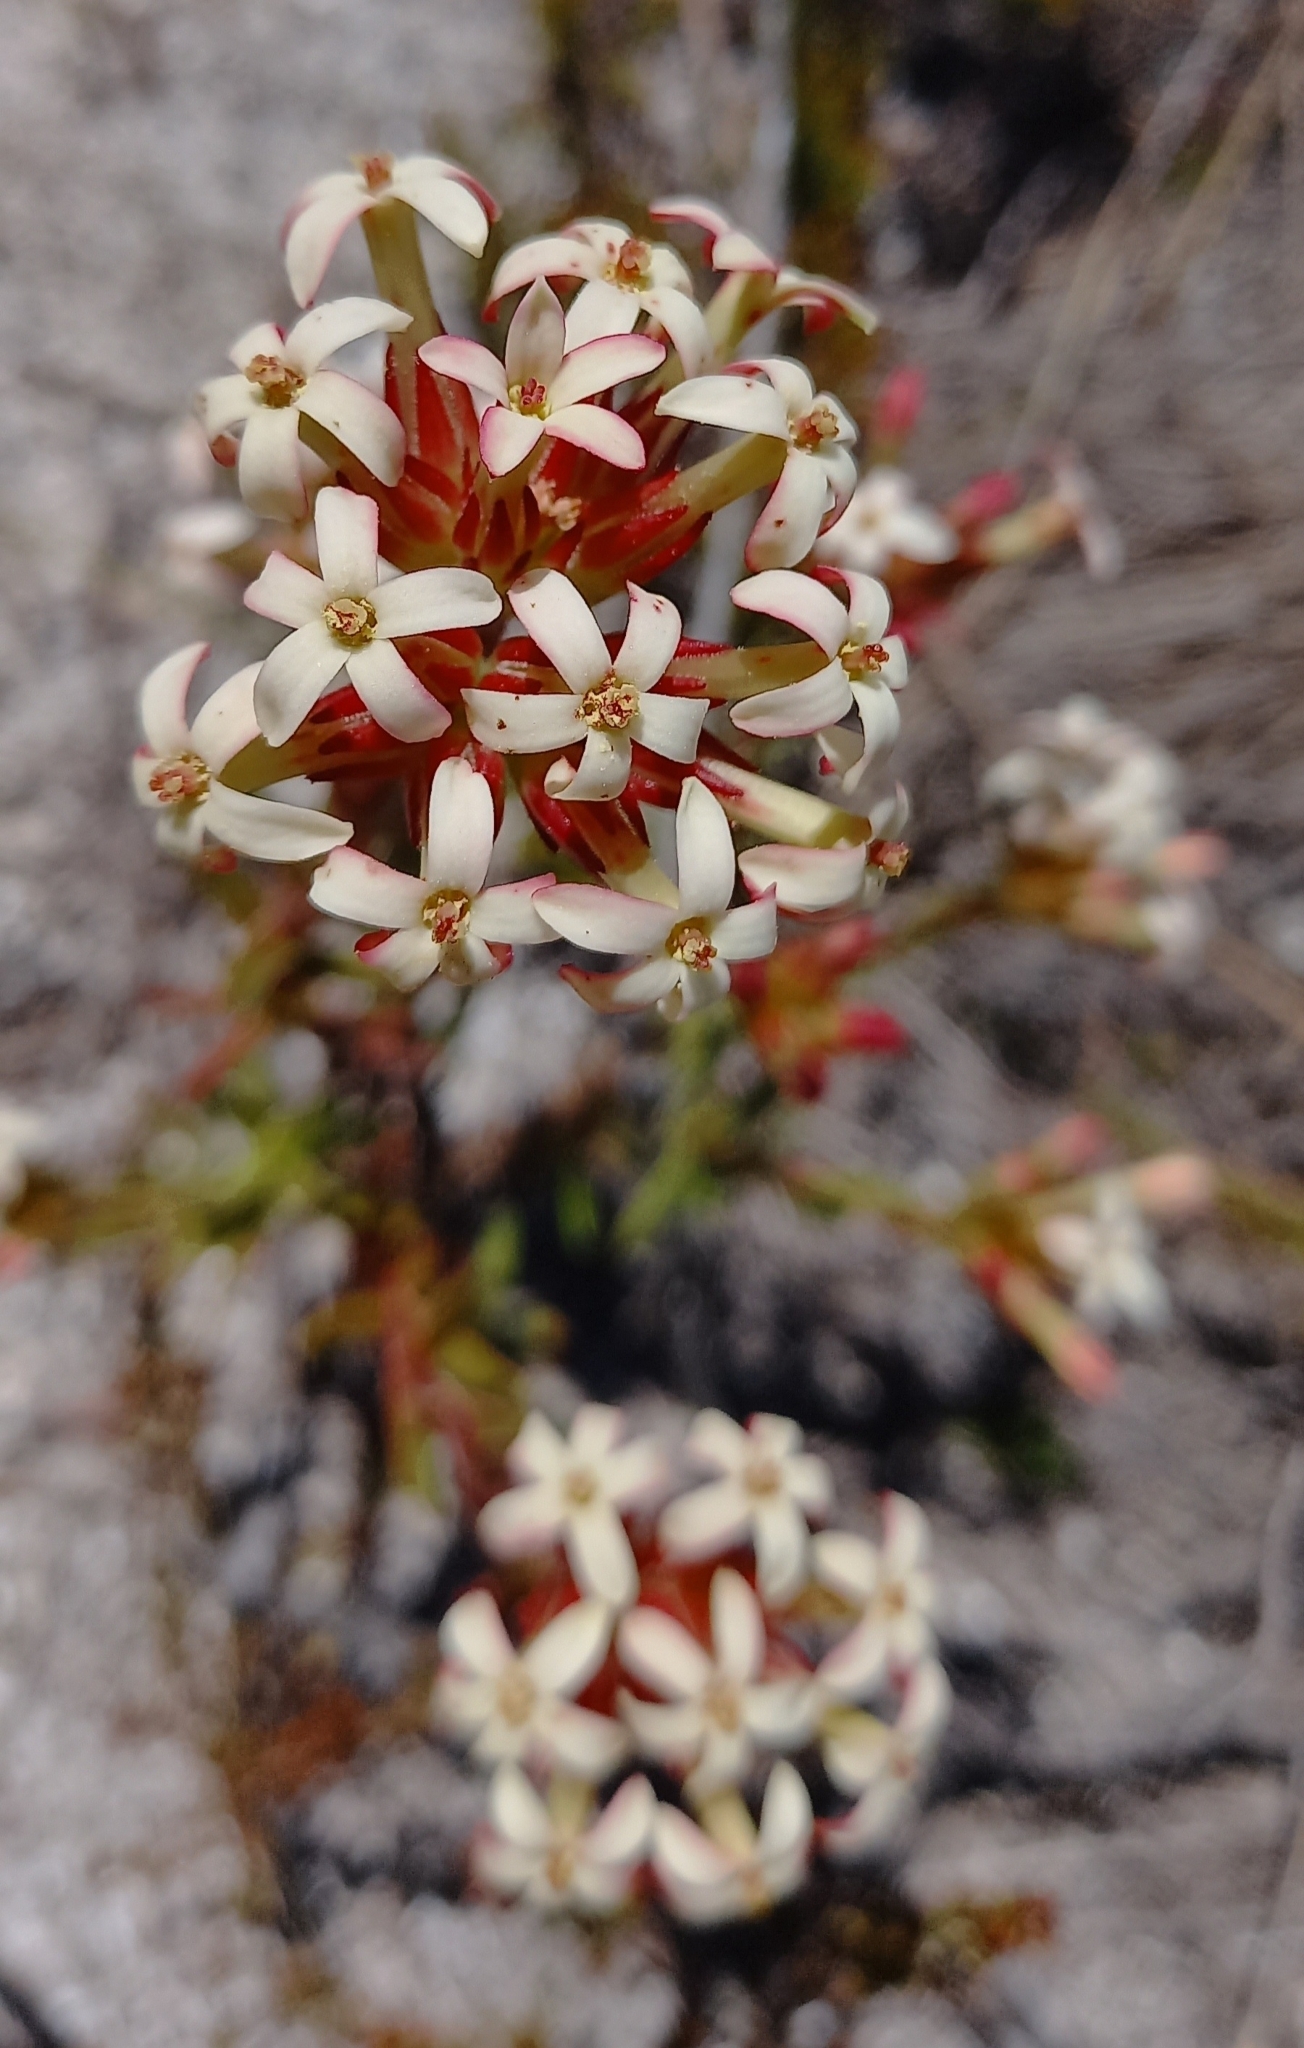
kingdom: Plantae
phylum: Tracheophyta
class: Magnoliopsida
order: Saxifragales
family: Crassulaceae
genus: Crassula
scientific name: Crassula fascicularis
